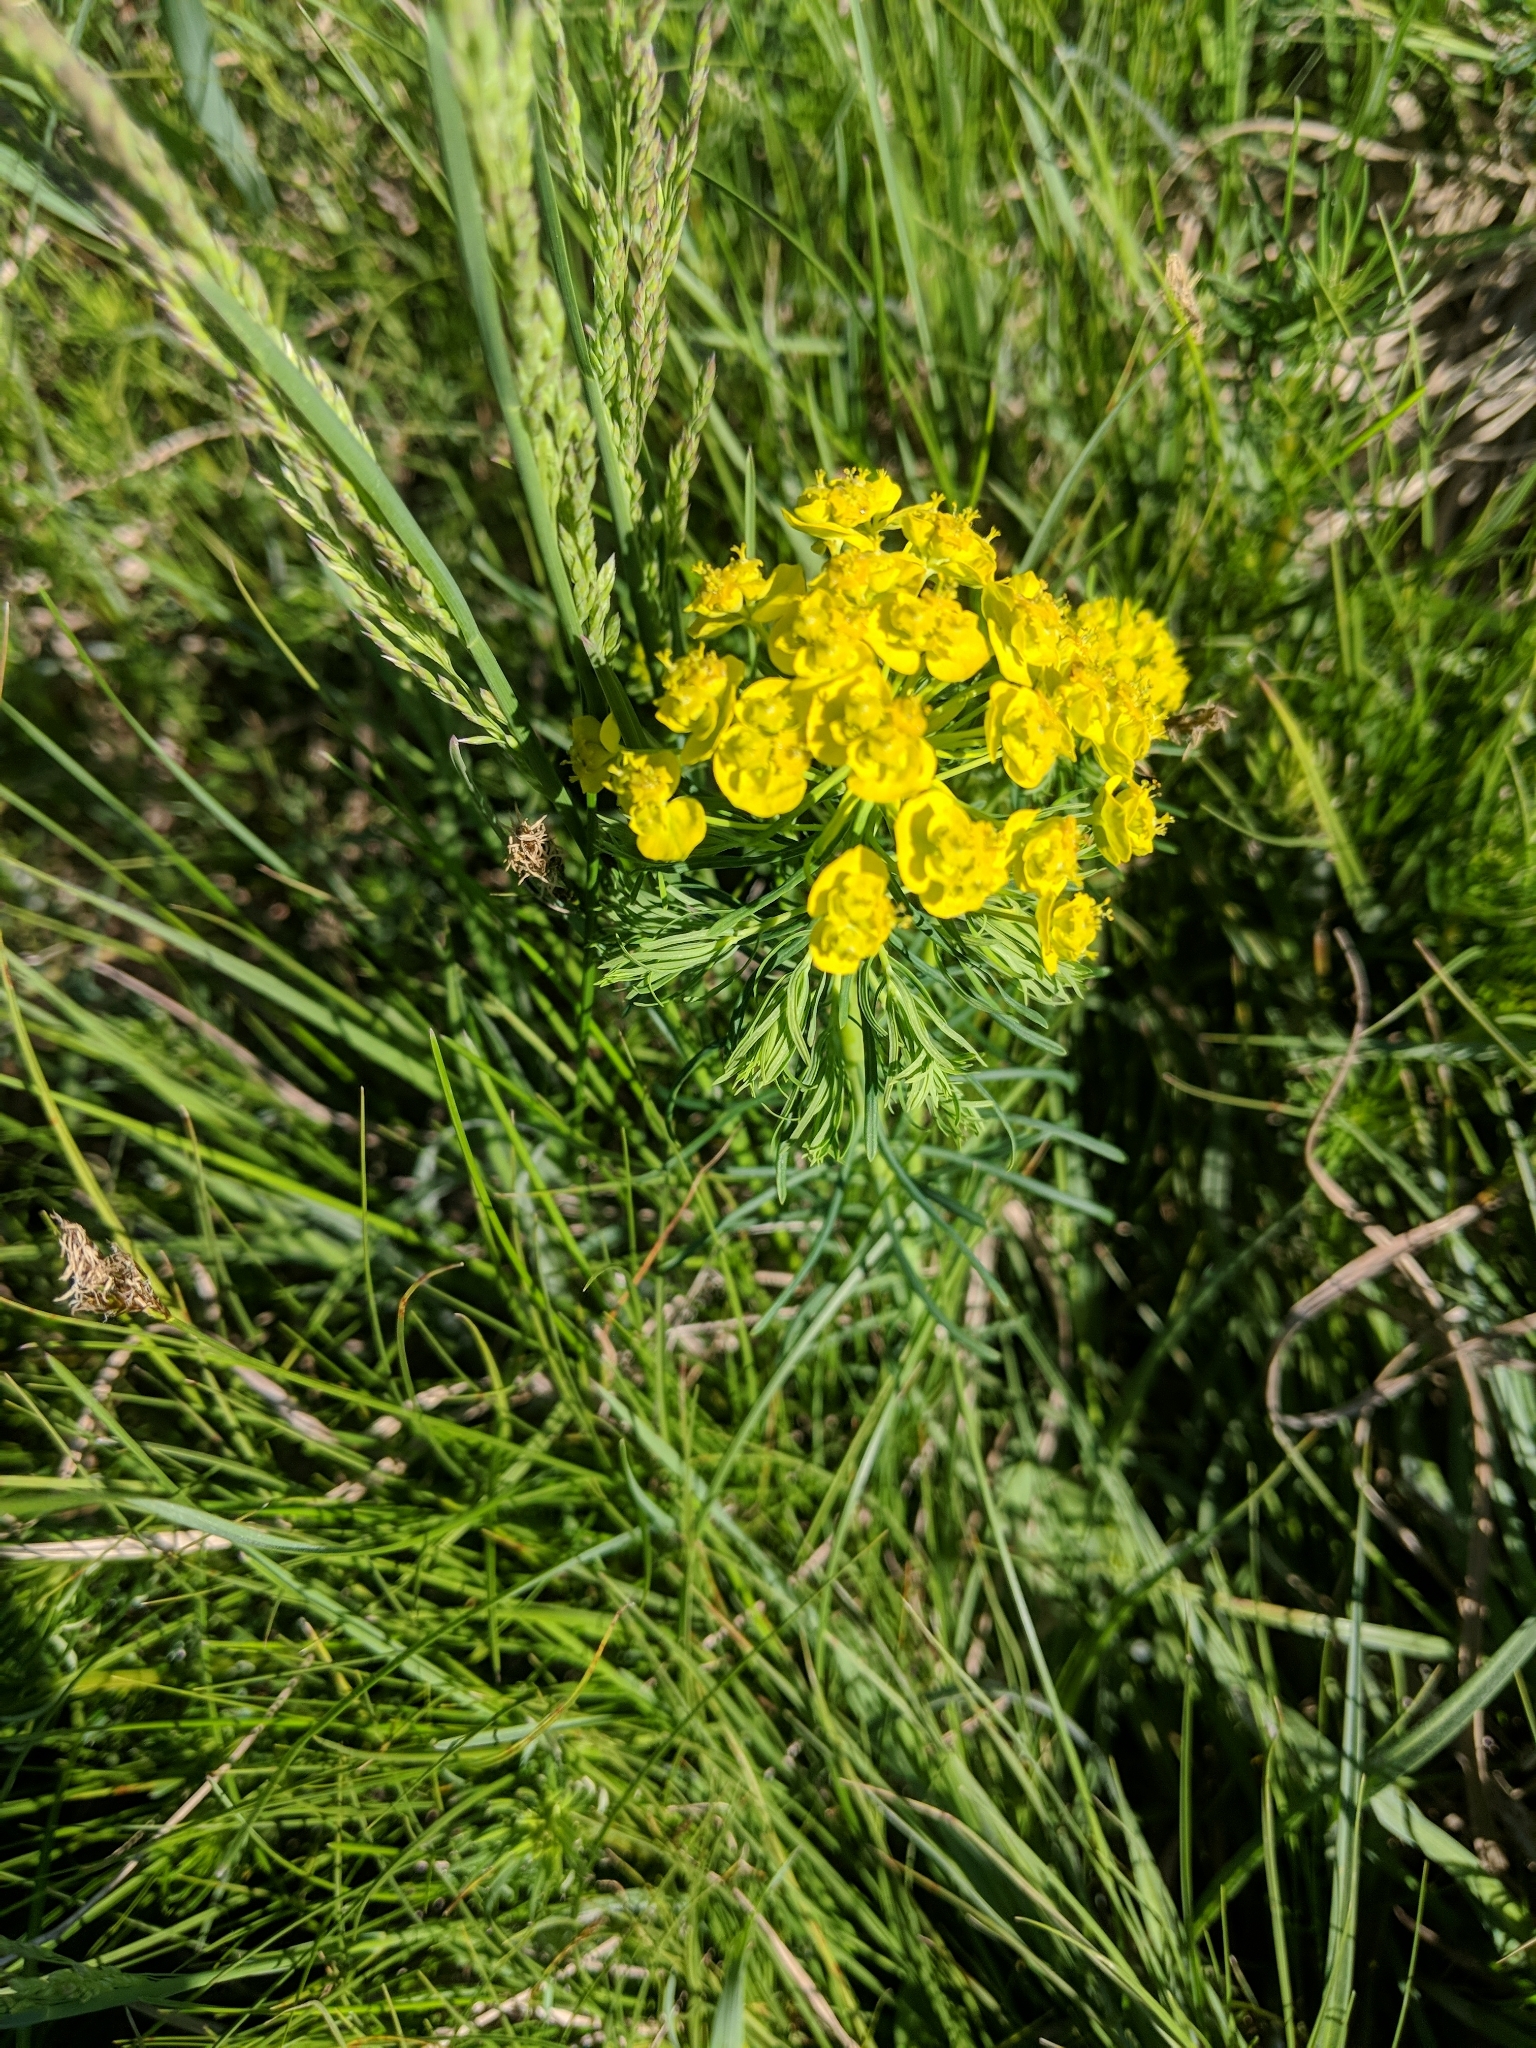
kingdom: Plantae
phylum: Tracheophyta
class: Magnoliopsida
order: Malpighiales
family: Euphorbiaceae
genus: Euphorbia
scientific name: Euphorbia cyparissias
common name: Cypress spurge
